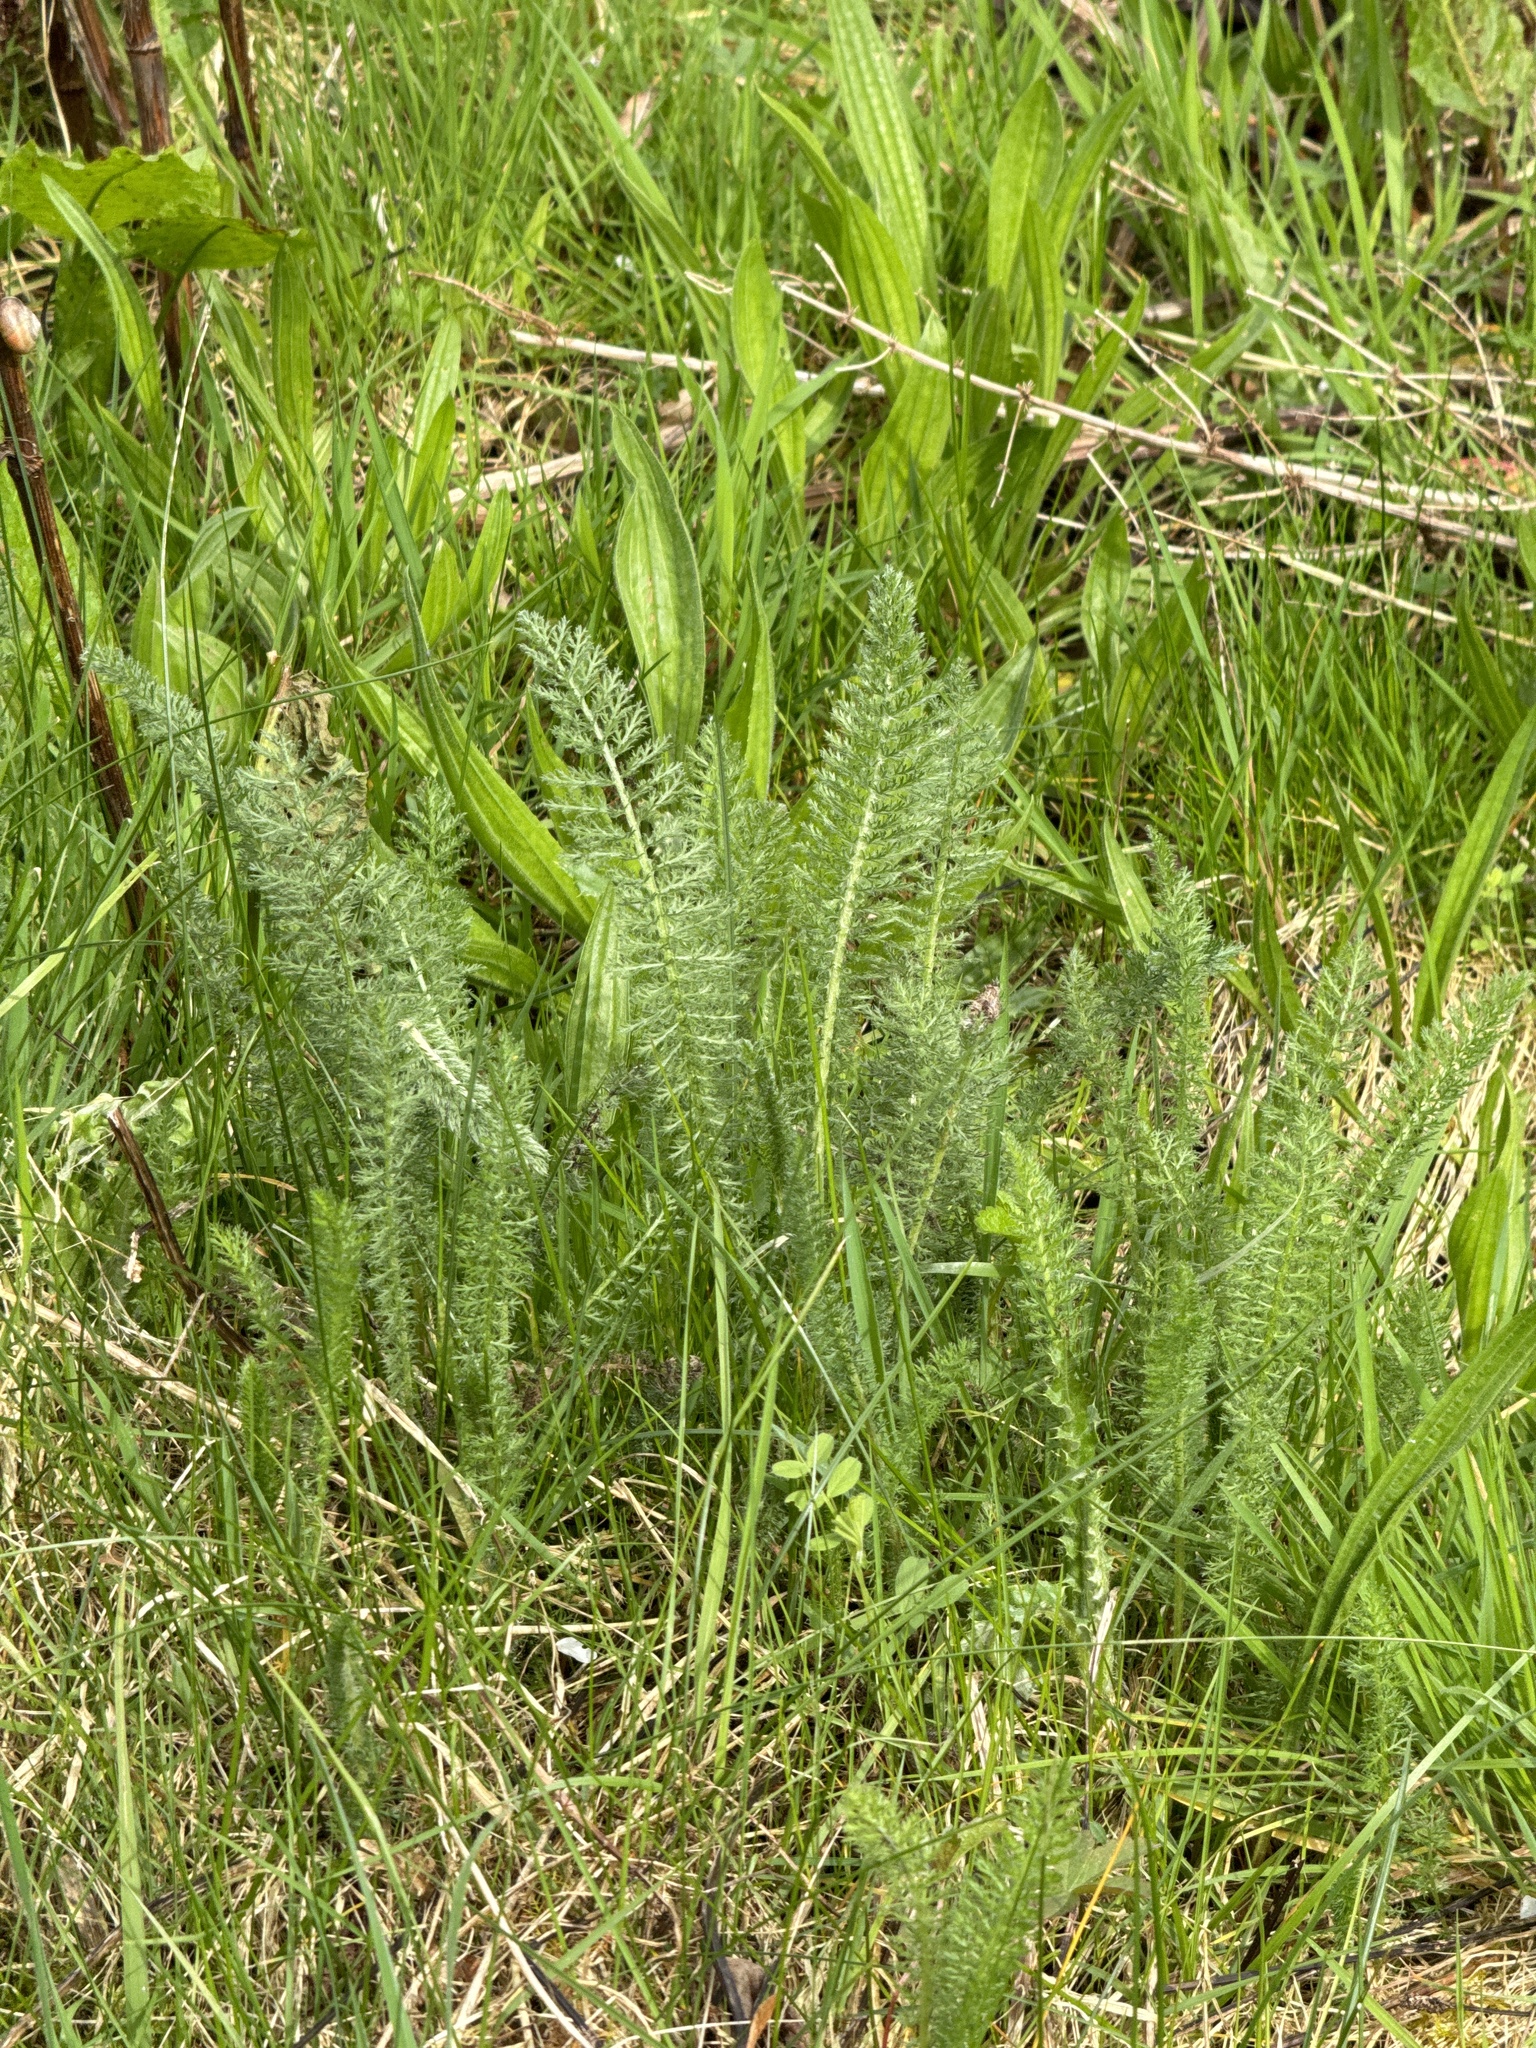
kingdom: Plantae
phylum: Tracheophyta
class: Magnoliopsida
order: Asterales
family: Asteraceae
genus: Achillea
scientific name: Achillea millefolium
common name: Yarrow
